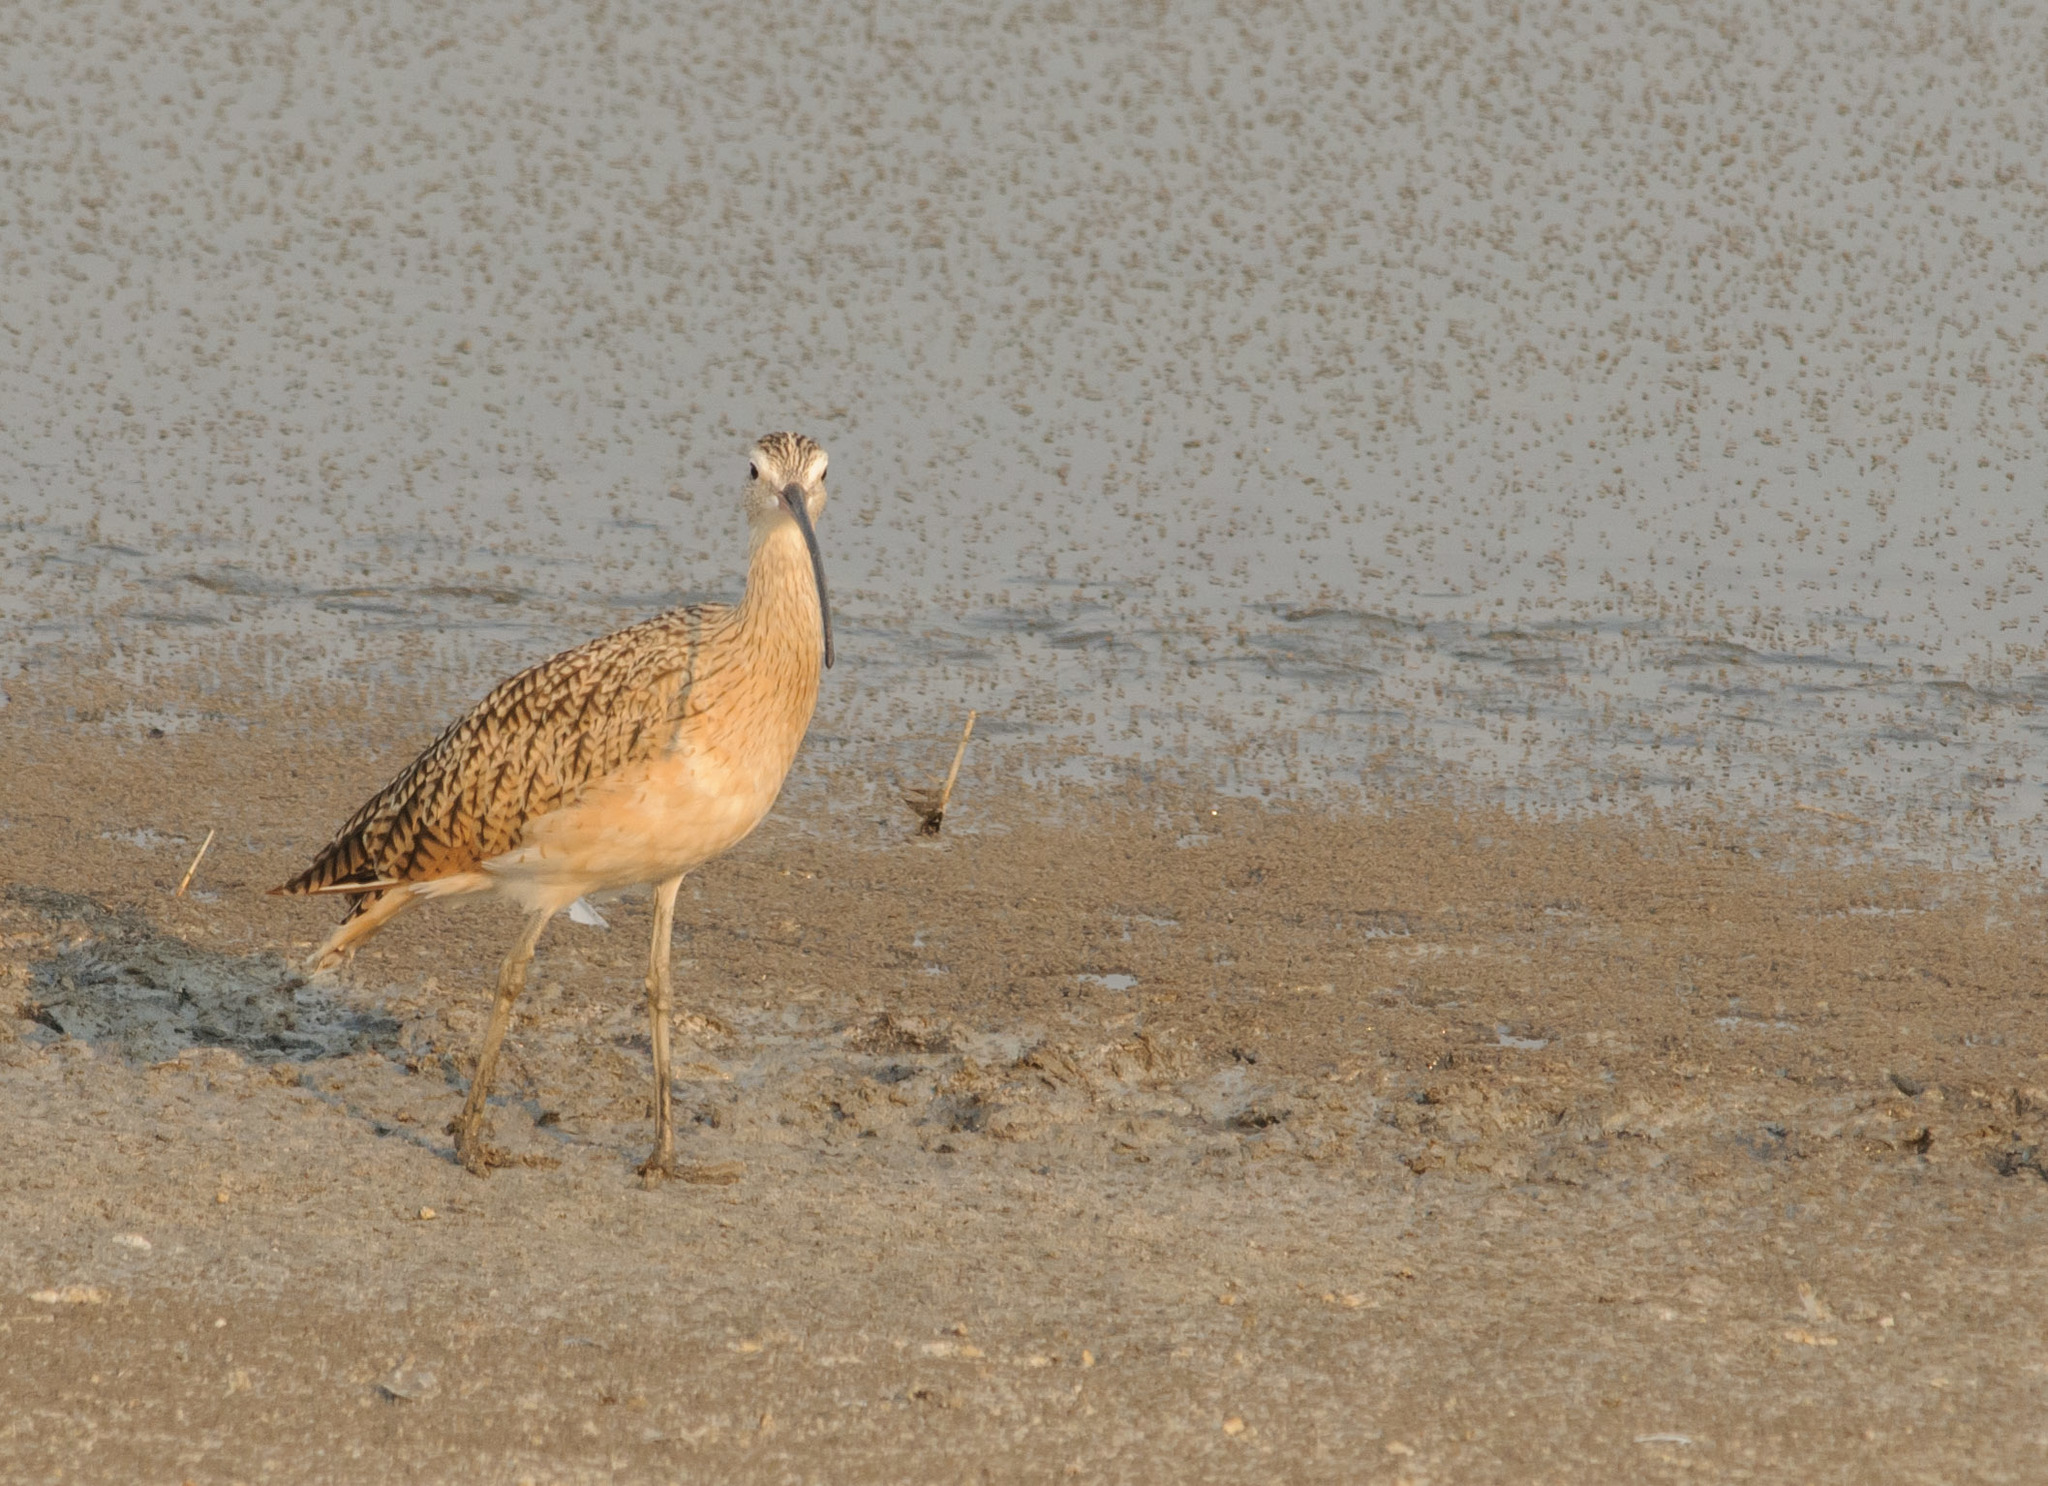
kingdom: Animalia
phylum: Chordata
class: Aves
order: Charadriiformes
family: Scolopacidae
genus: Numenius
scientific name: Numenius americanus
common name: Long-billed curlew
